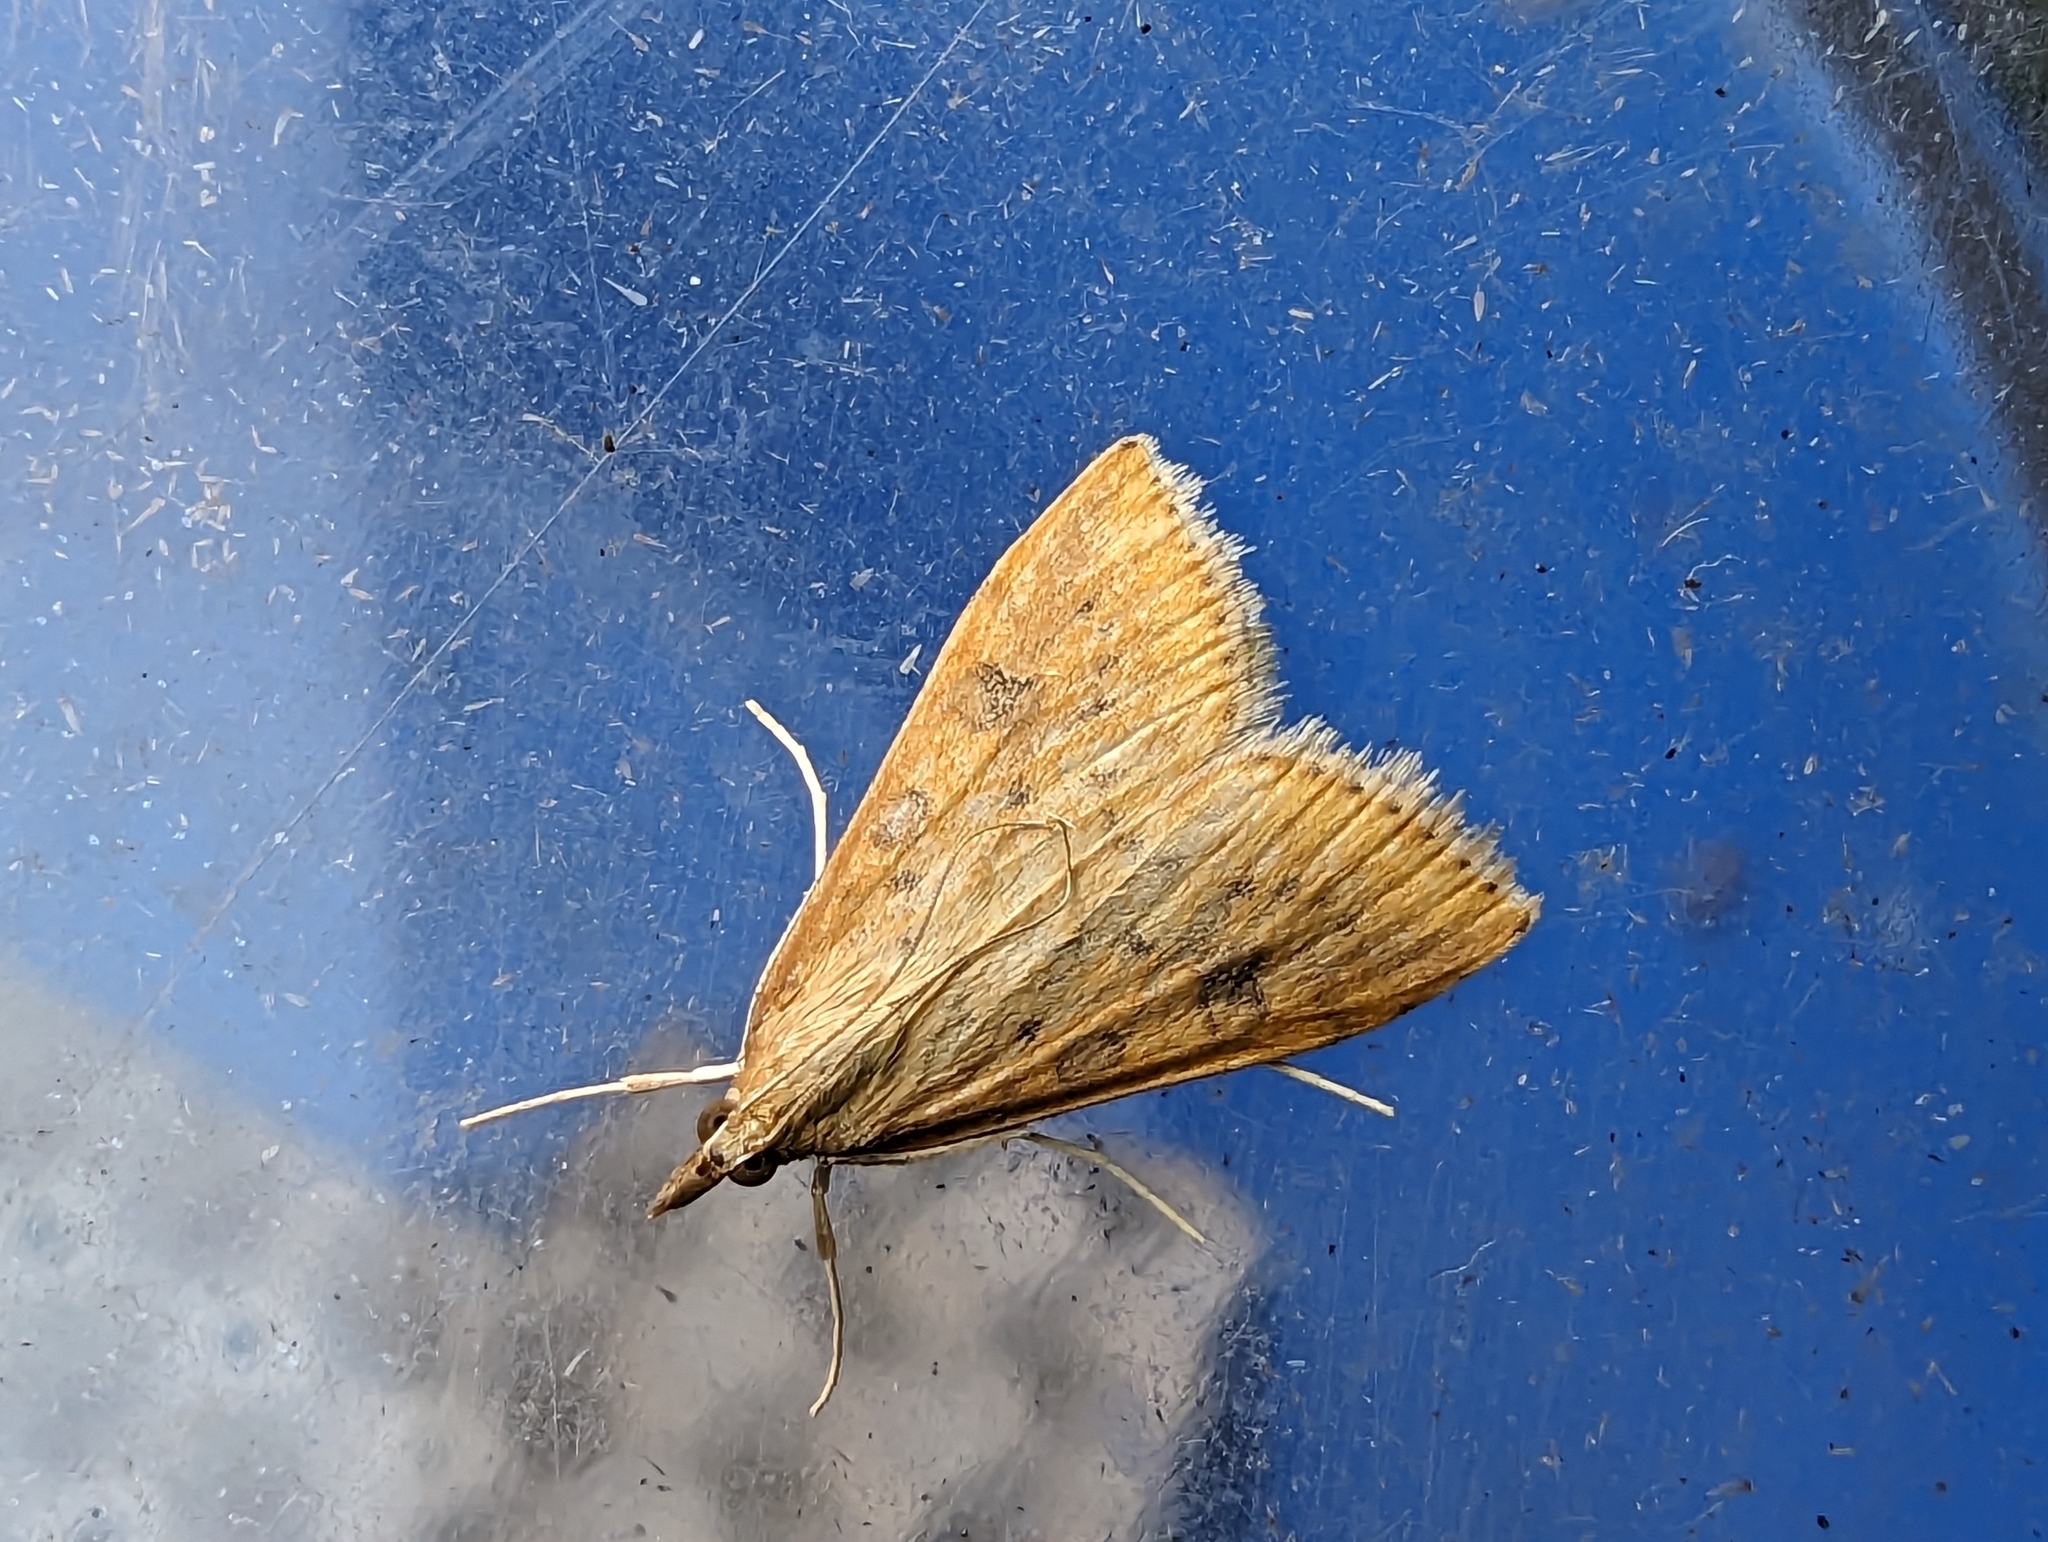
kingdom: Animalia
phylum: Arthropoda
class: Insecta
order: Lepidoptera
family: Crambidae
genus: Udea
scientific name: Udea ferrugalis
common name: Rusty dot
